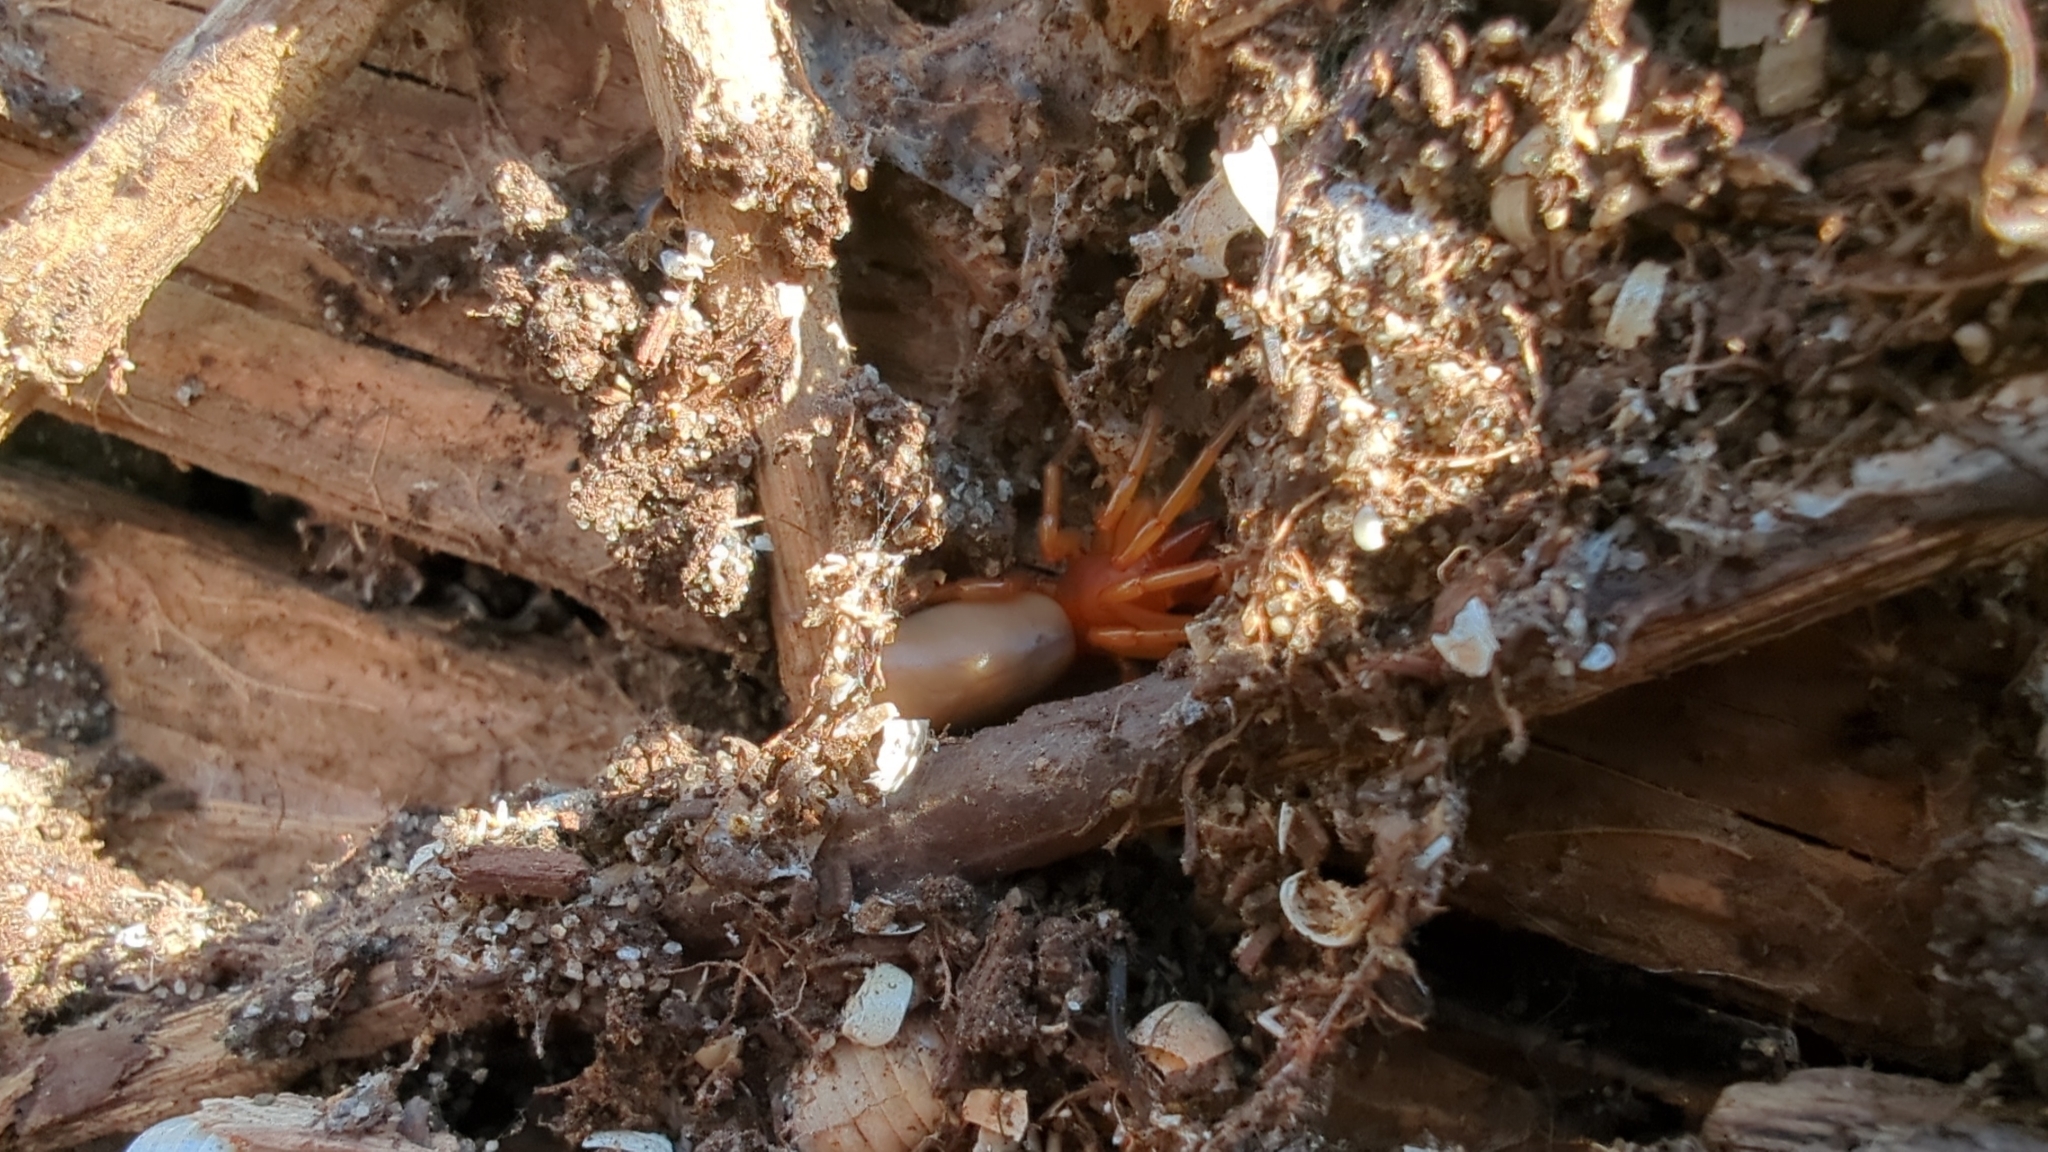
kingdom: Animalia
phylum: Arthropoda
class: Arachnida
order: Araneae
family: Dysderidae
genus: Dysdera
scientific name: Dysdera crocata
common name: Woodlouse spider
